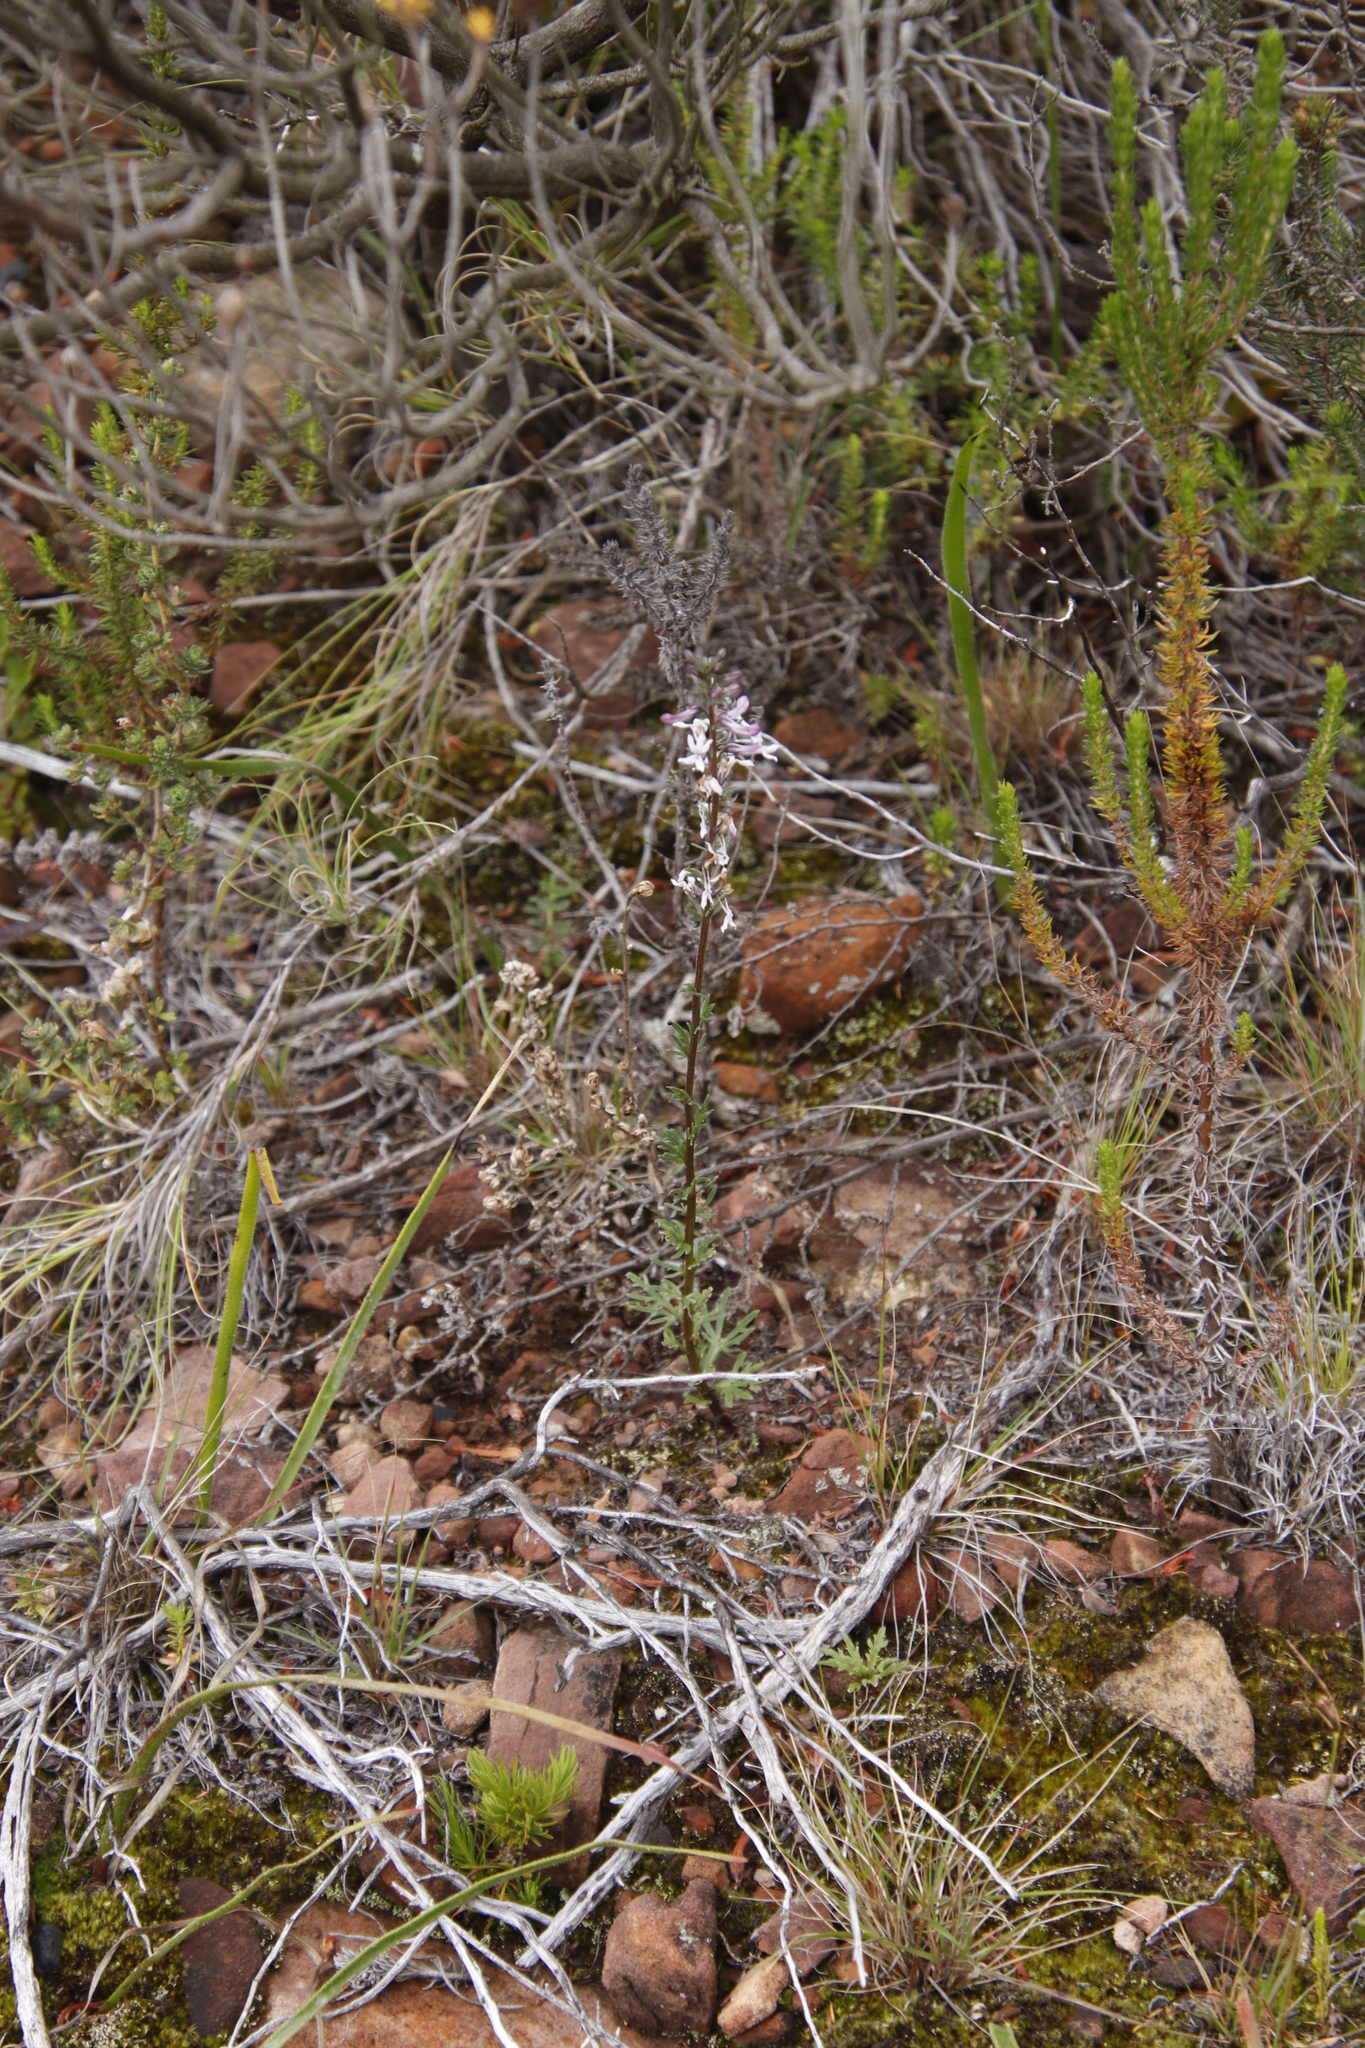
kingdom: Plantae
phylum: Tracheophyta
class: Magnoliopsida
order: Asterales
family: Campanulaceae
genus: Cyphia
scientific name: Cyphia bulbosa
